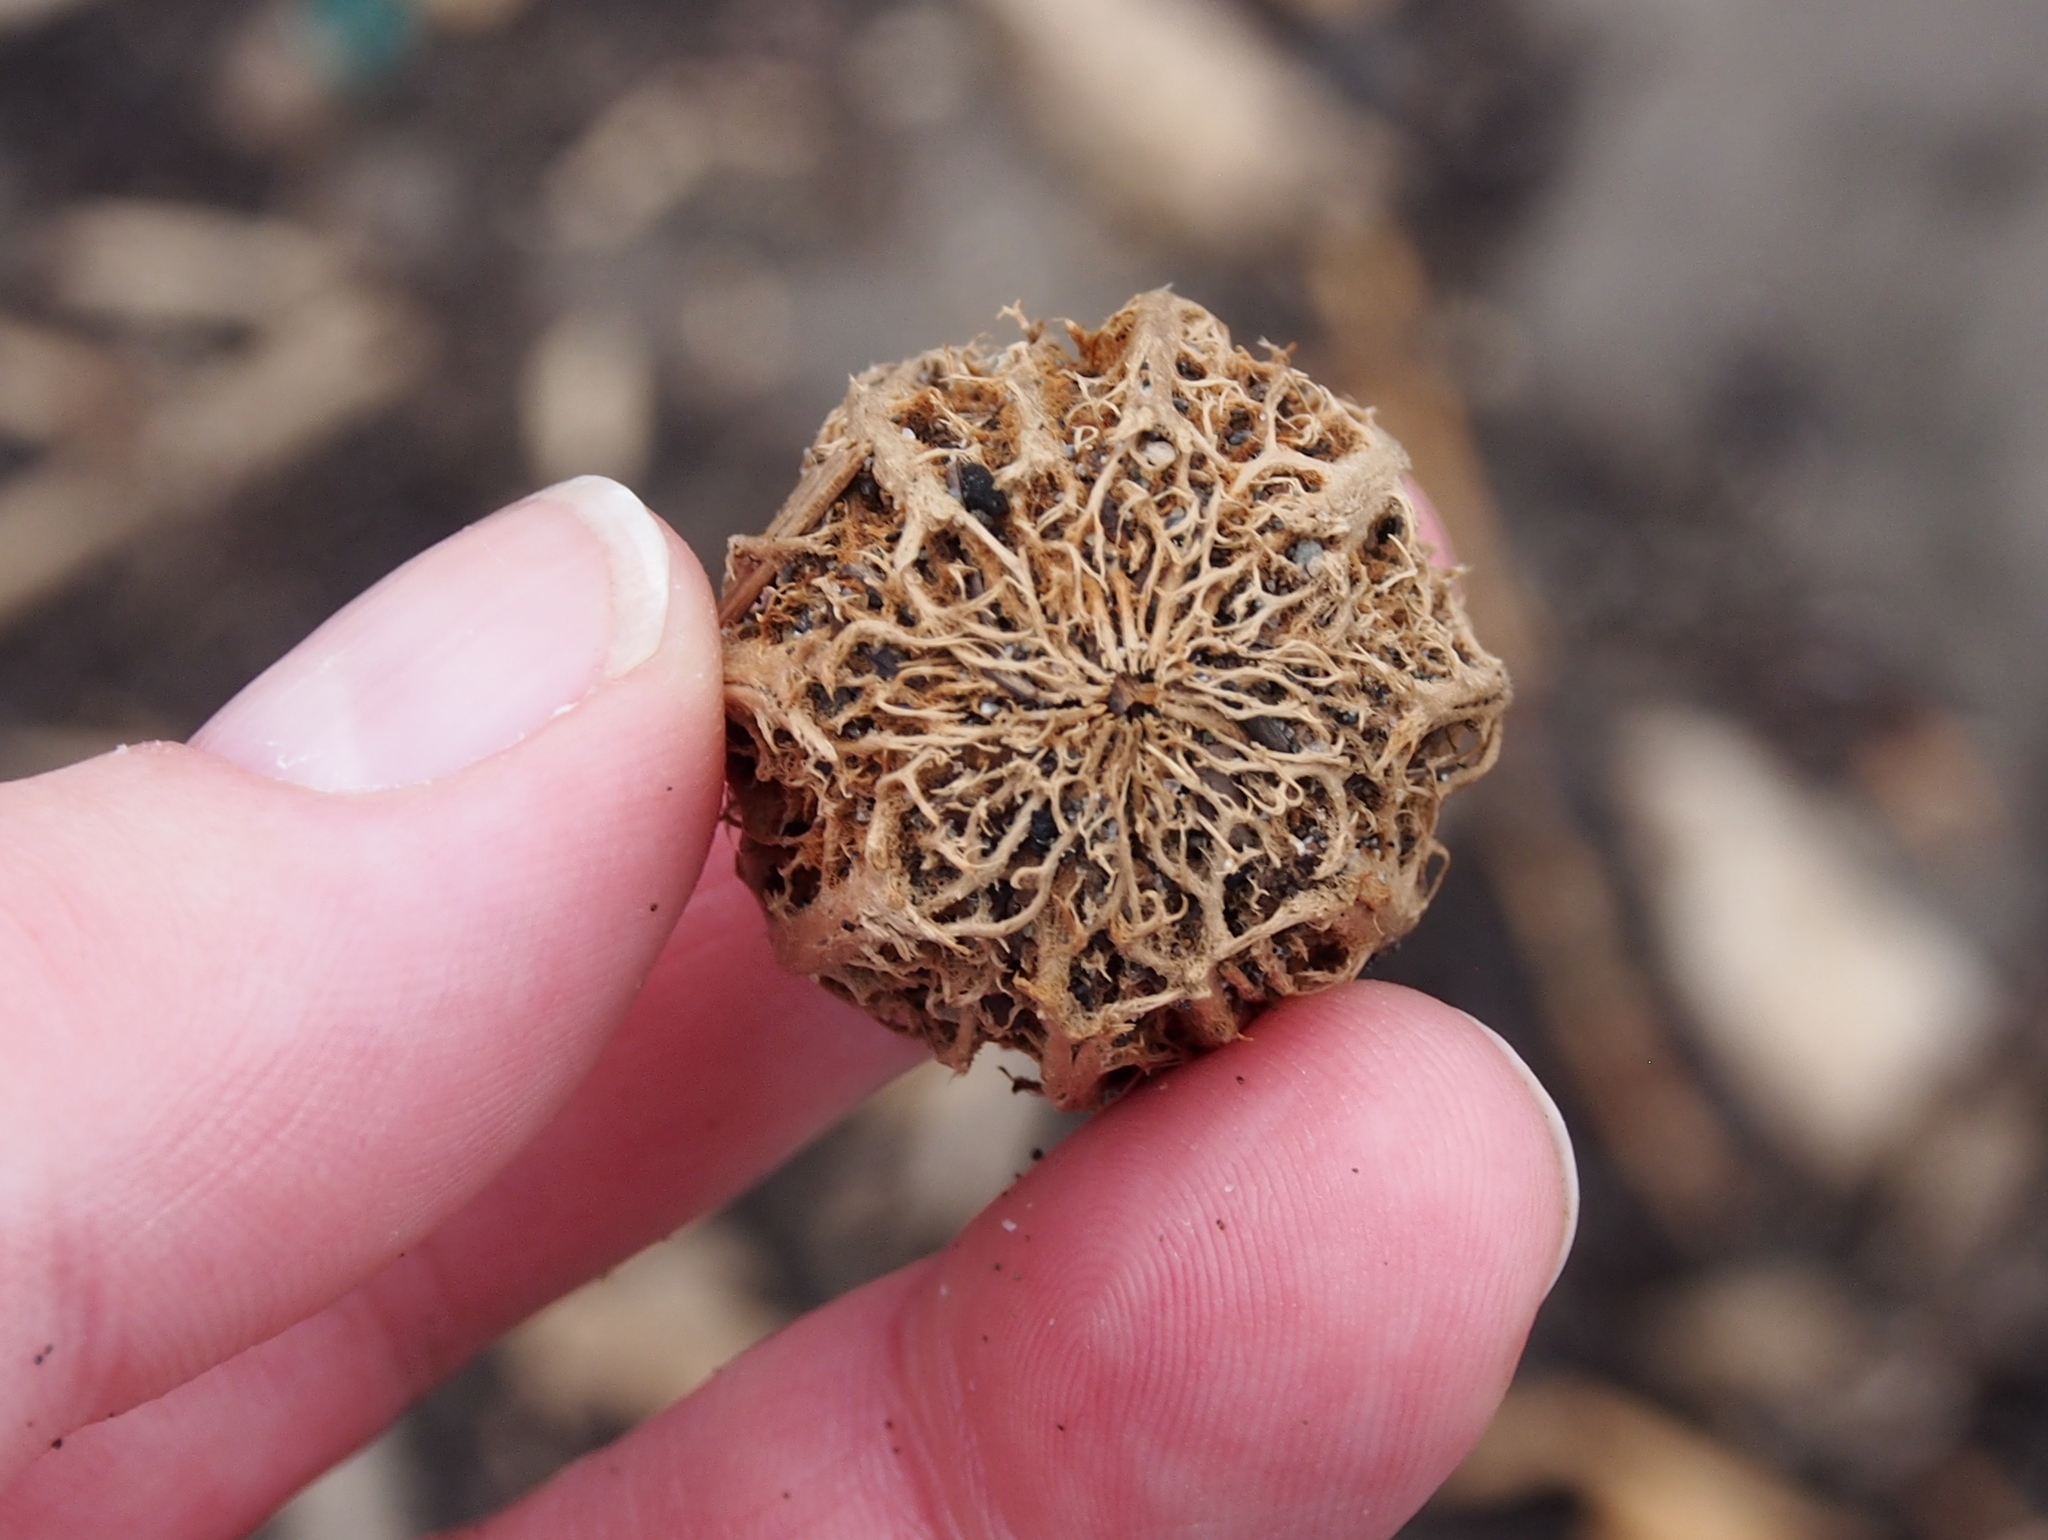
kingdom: Plantae
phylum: Tracheophyta
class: Magnoliopsida
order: Ericales
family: Lecythidaceae
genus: Grias
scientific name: Grias cauliflora
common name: Anchovy-pear
